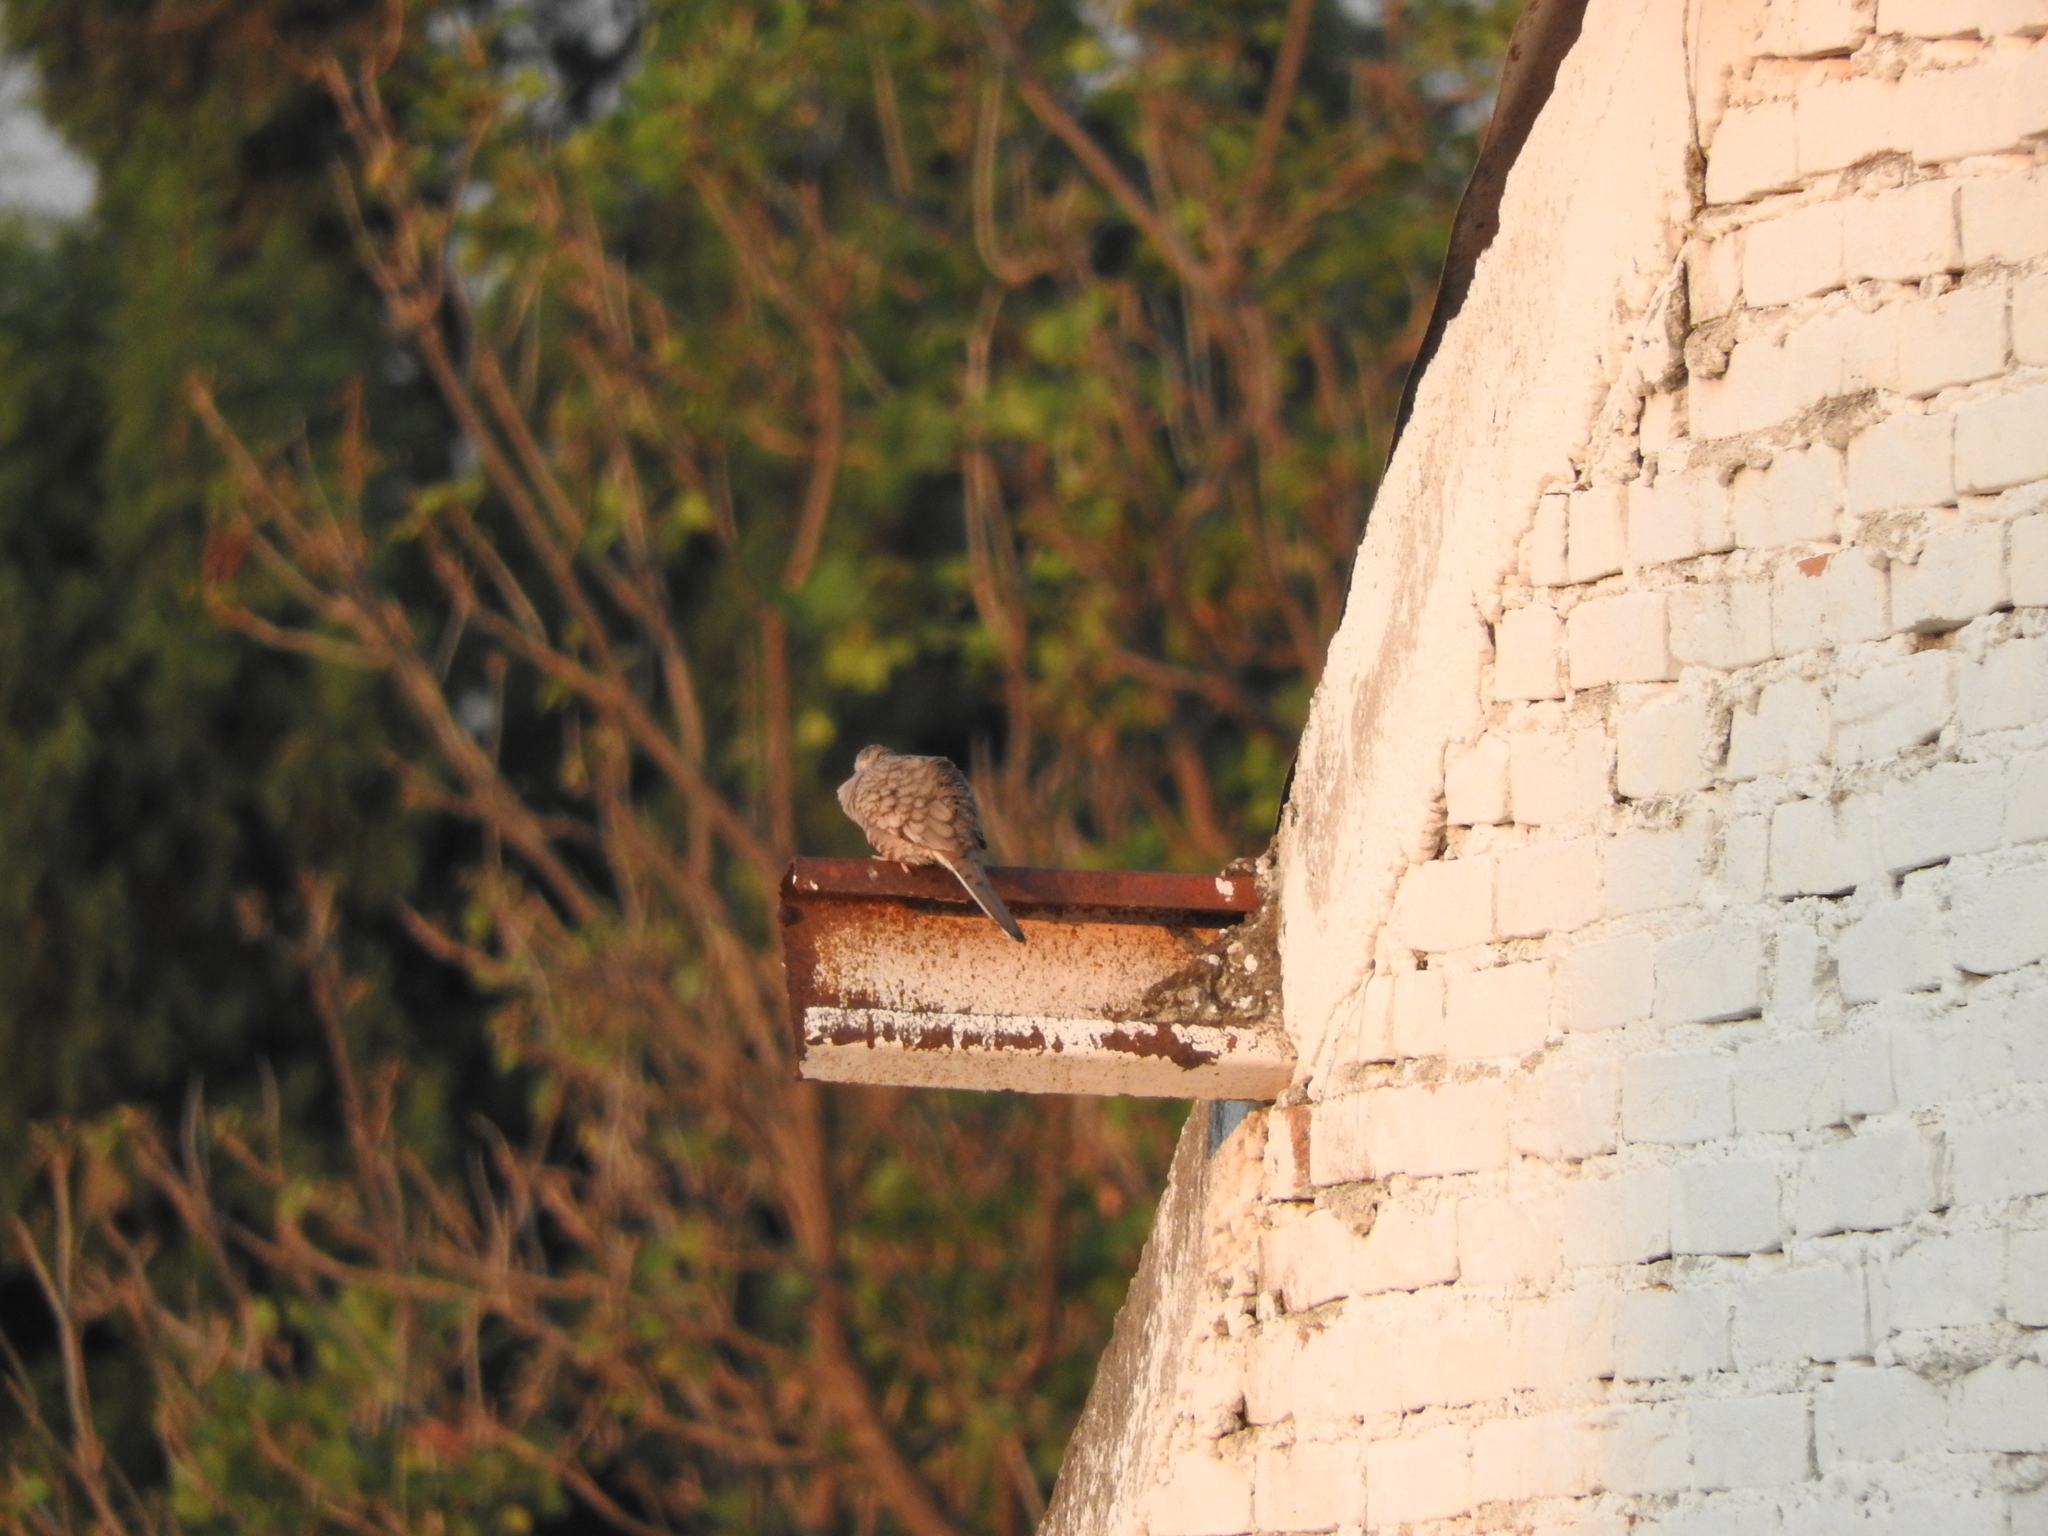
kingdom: Animalia
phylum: Chordata
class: Aves
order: Columbiformes
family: Columbidae
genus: Columbina
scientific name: Columbina inca
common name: Inca dove
